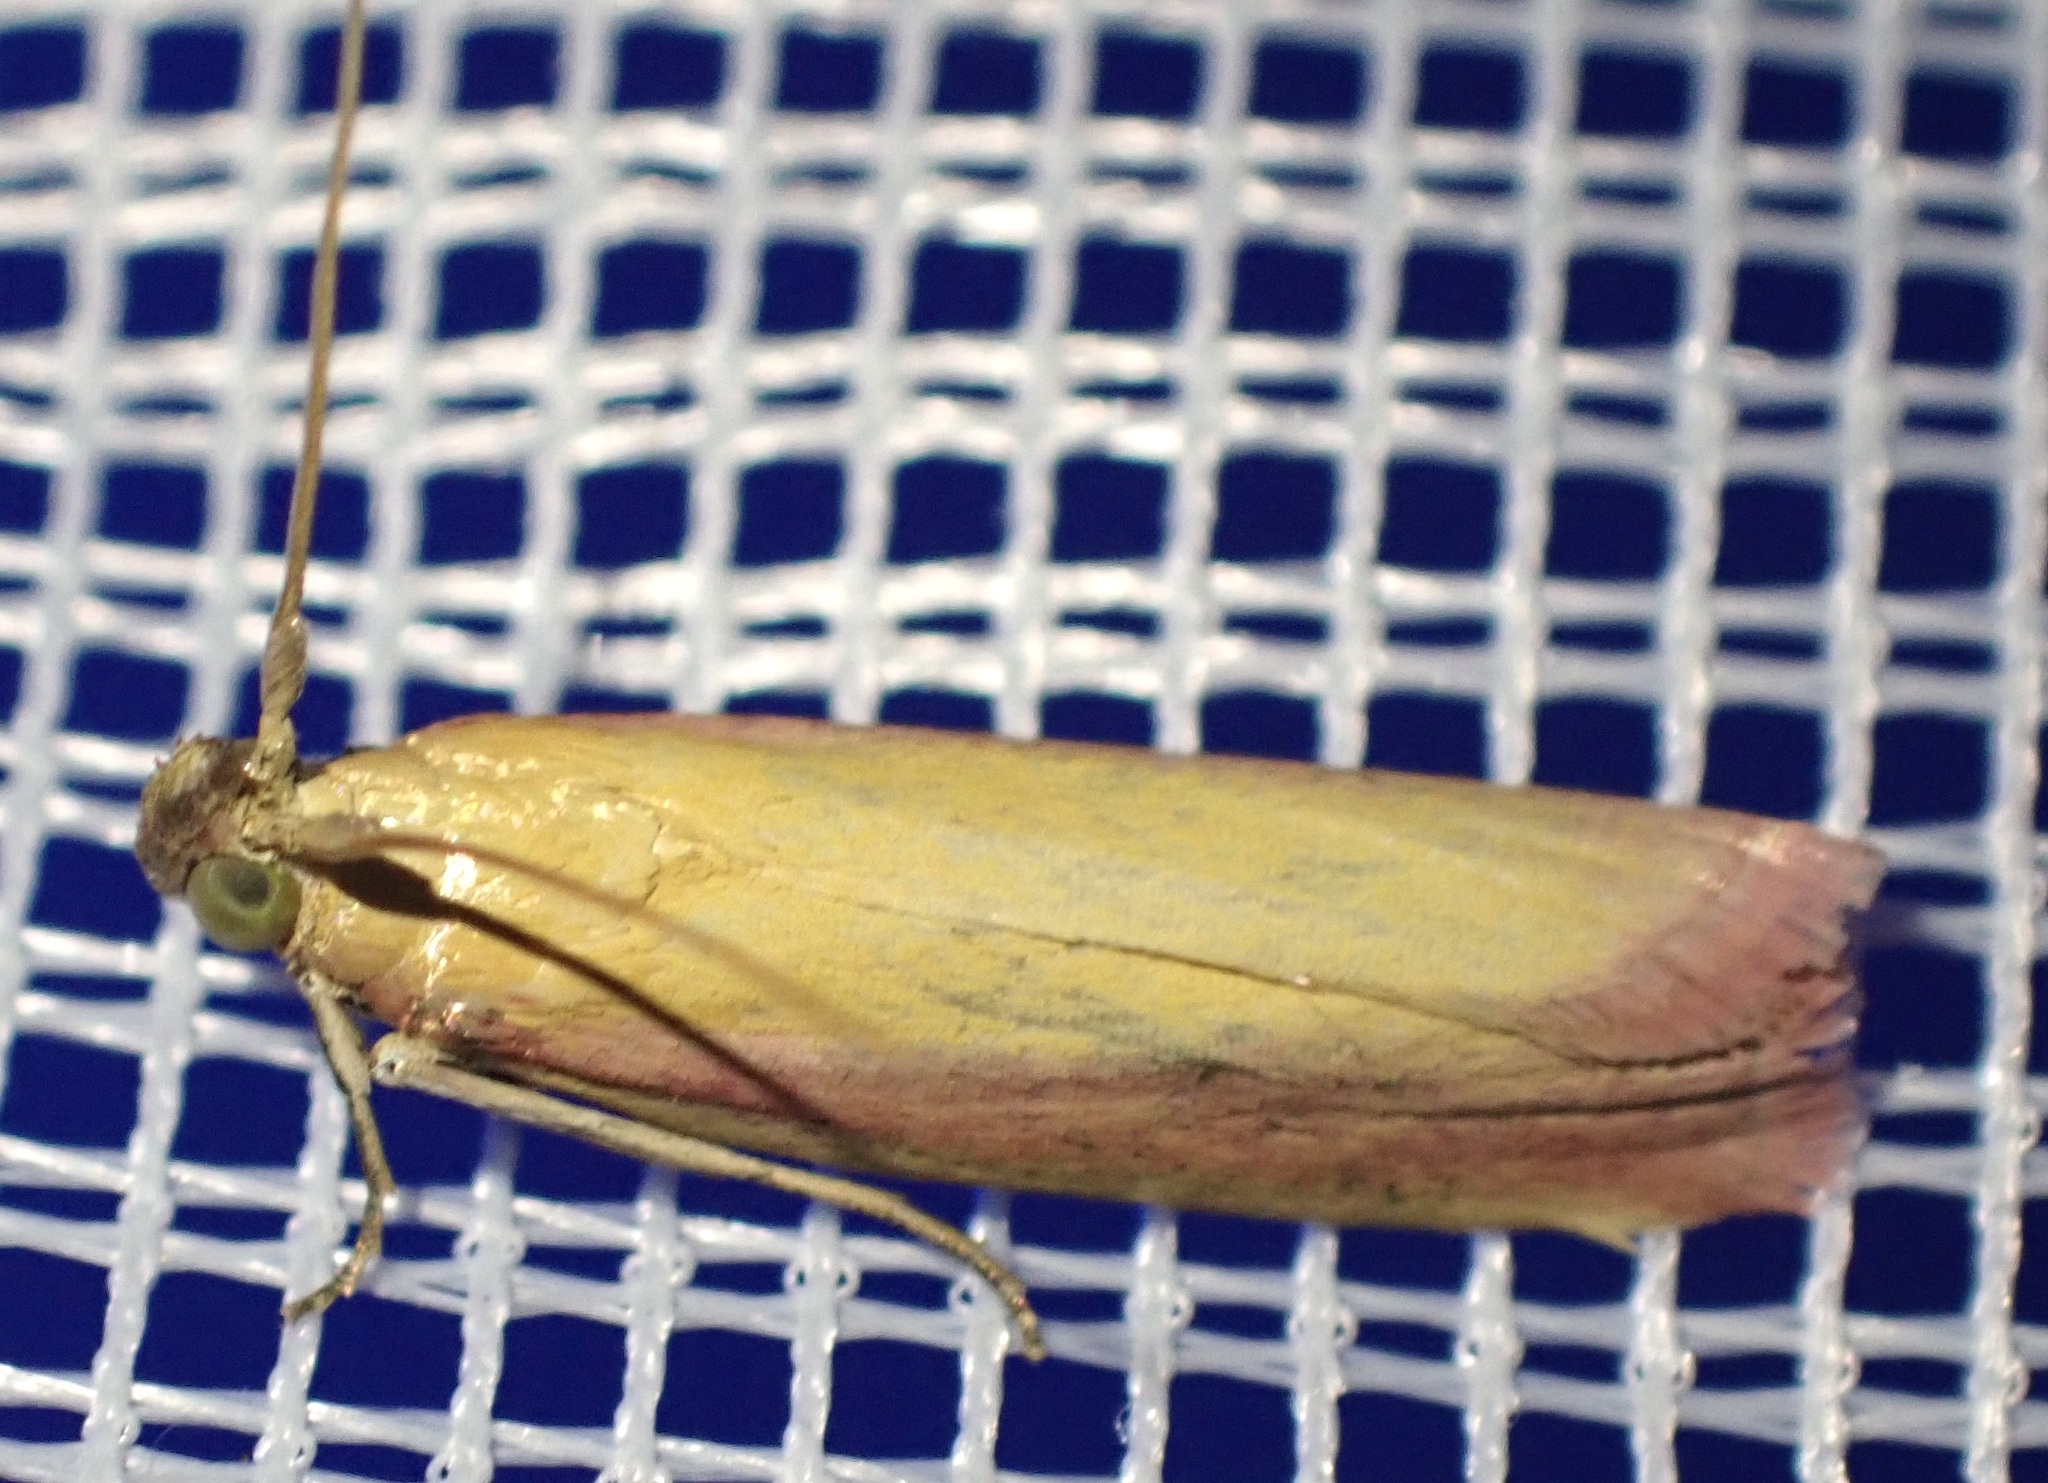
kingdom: Animalia
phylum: Arthropoda
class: Insecta
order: Lepidoptera
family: Pyralidae
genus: Oncocera
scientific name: Oncocera semirubella
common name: Rosy-striped knot-horn
